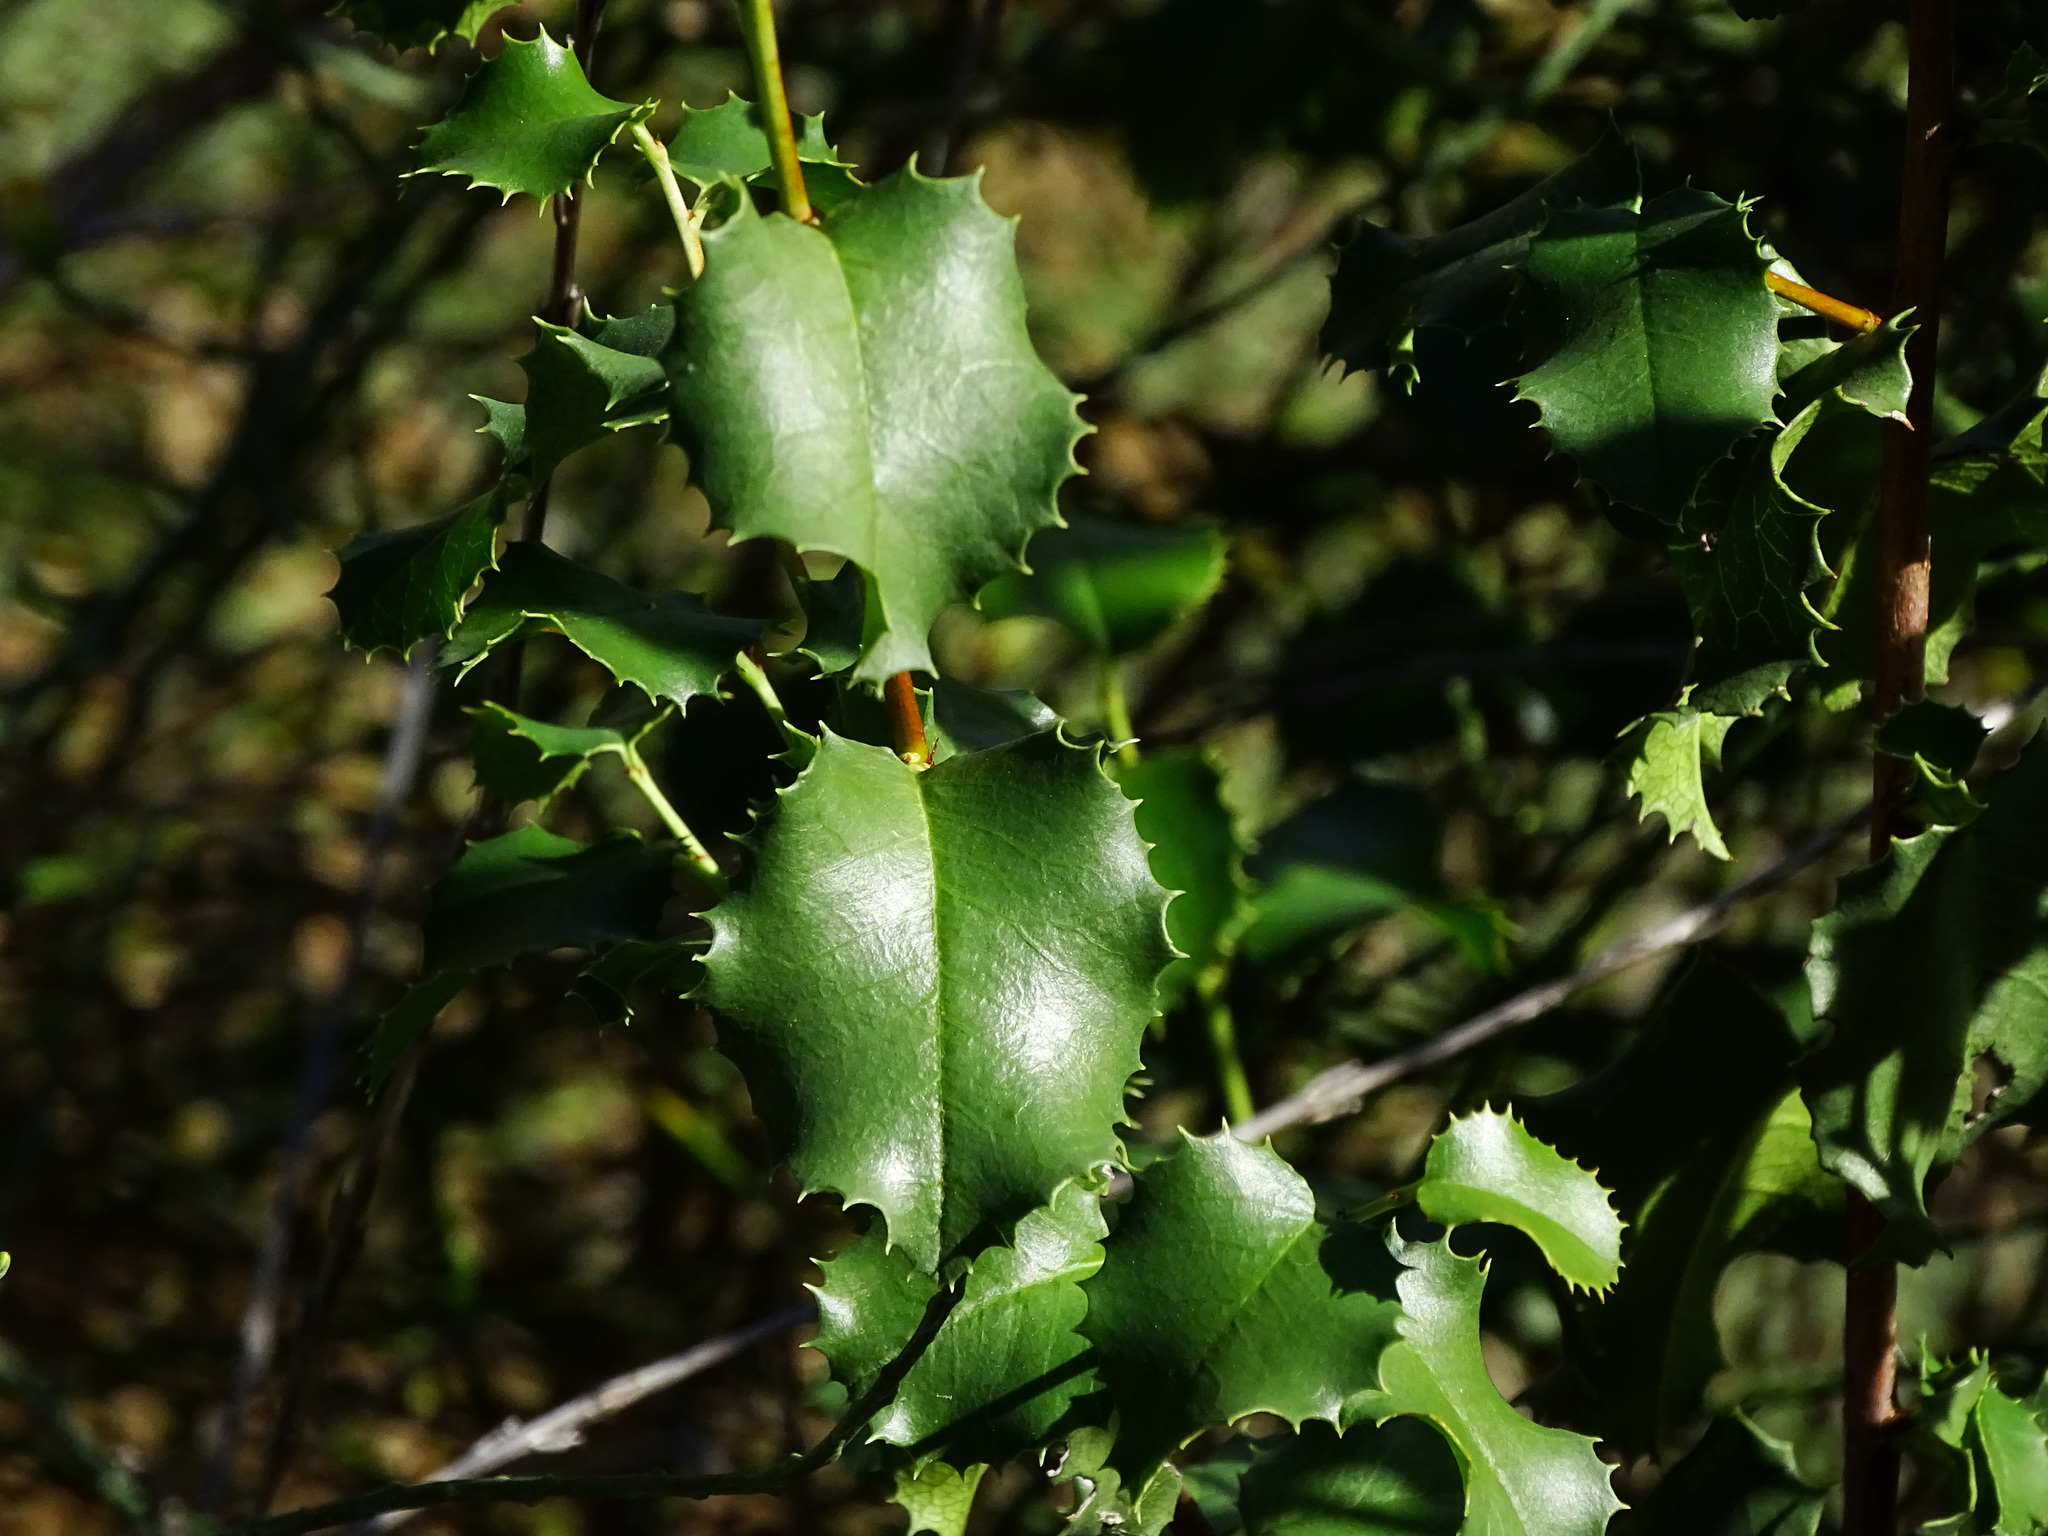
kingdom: Plantae
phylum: Tracheophyta
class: Magnoliopsida
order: Rosales
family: Rosaceae
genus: Prunus
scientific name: Prunus ilicifolia
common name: Hollyleaf cherry
